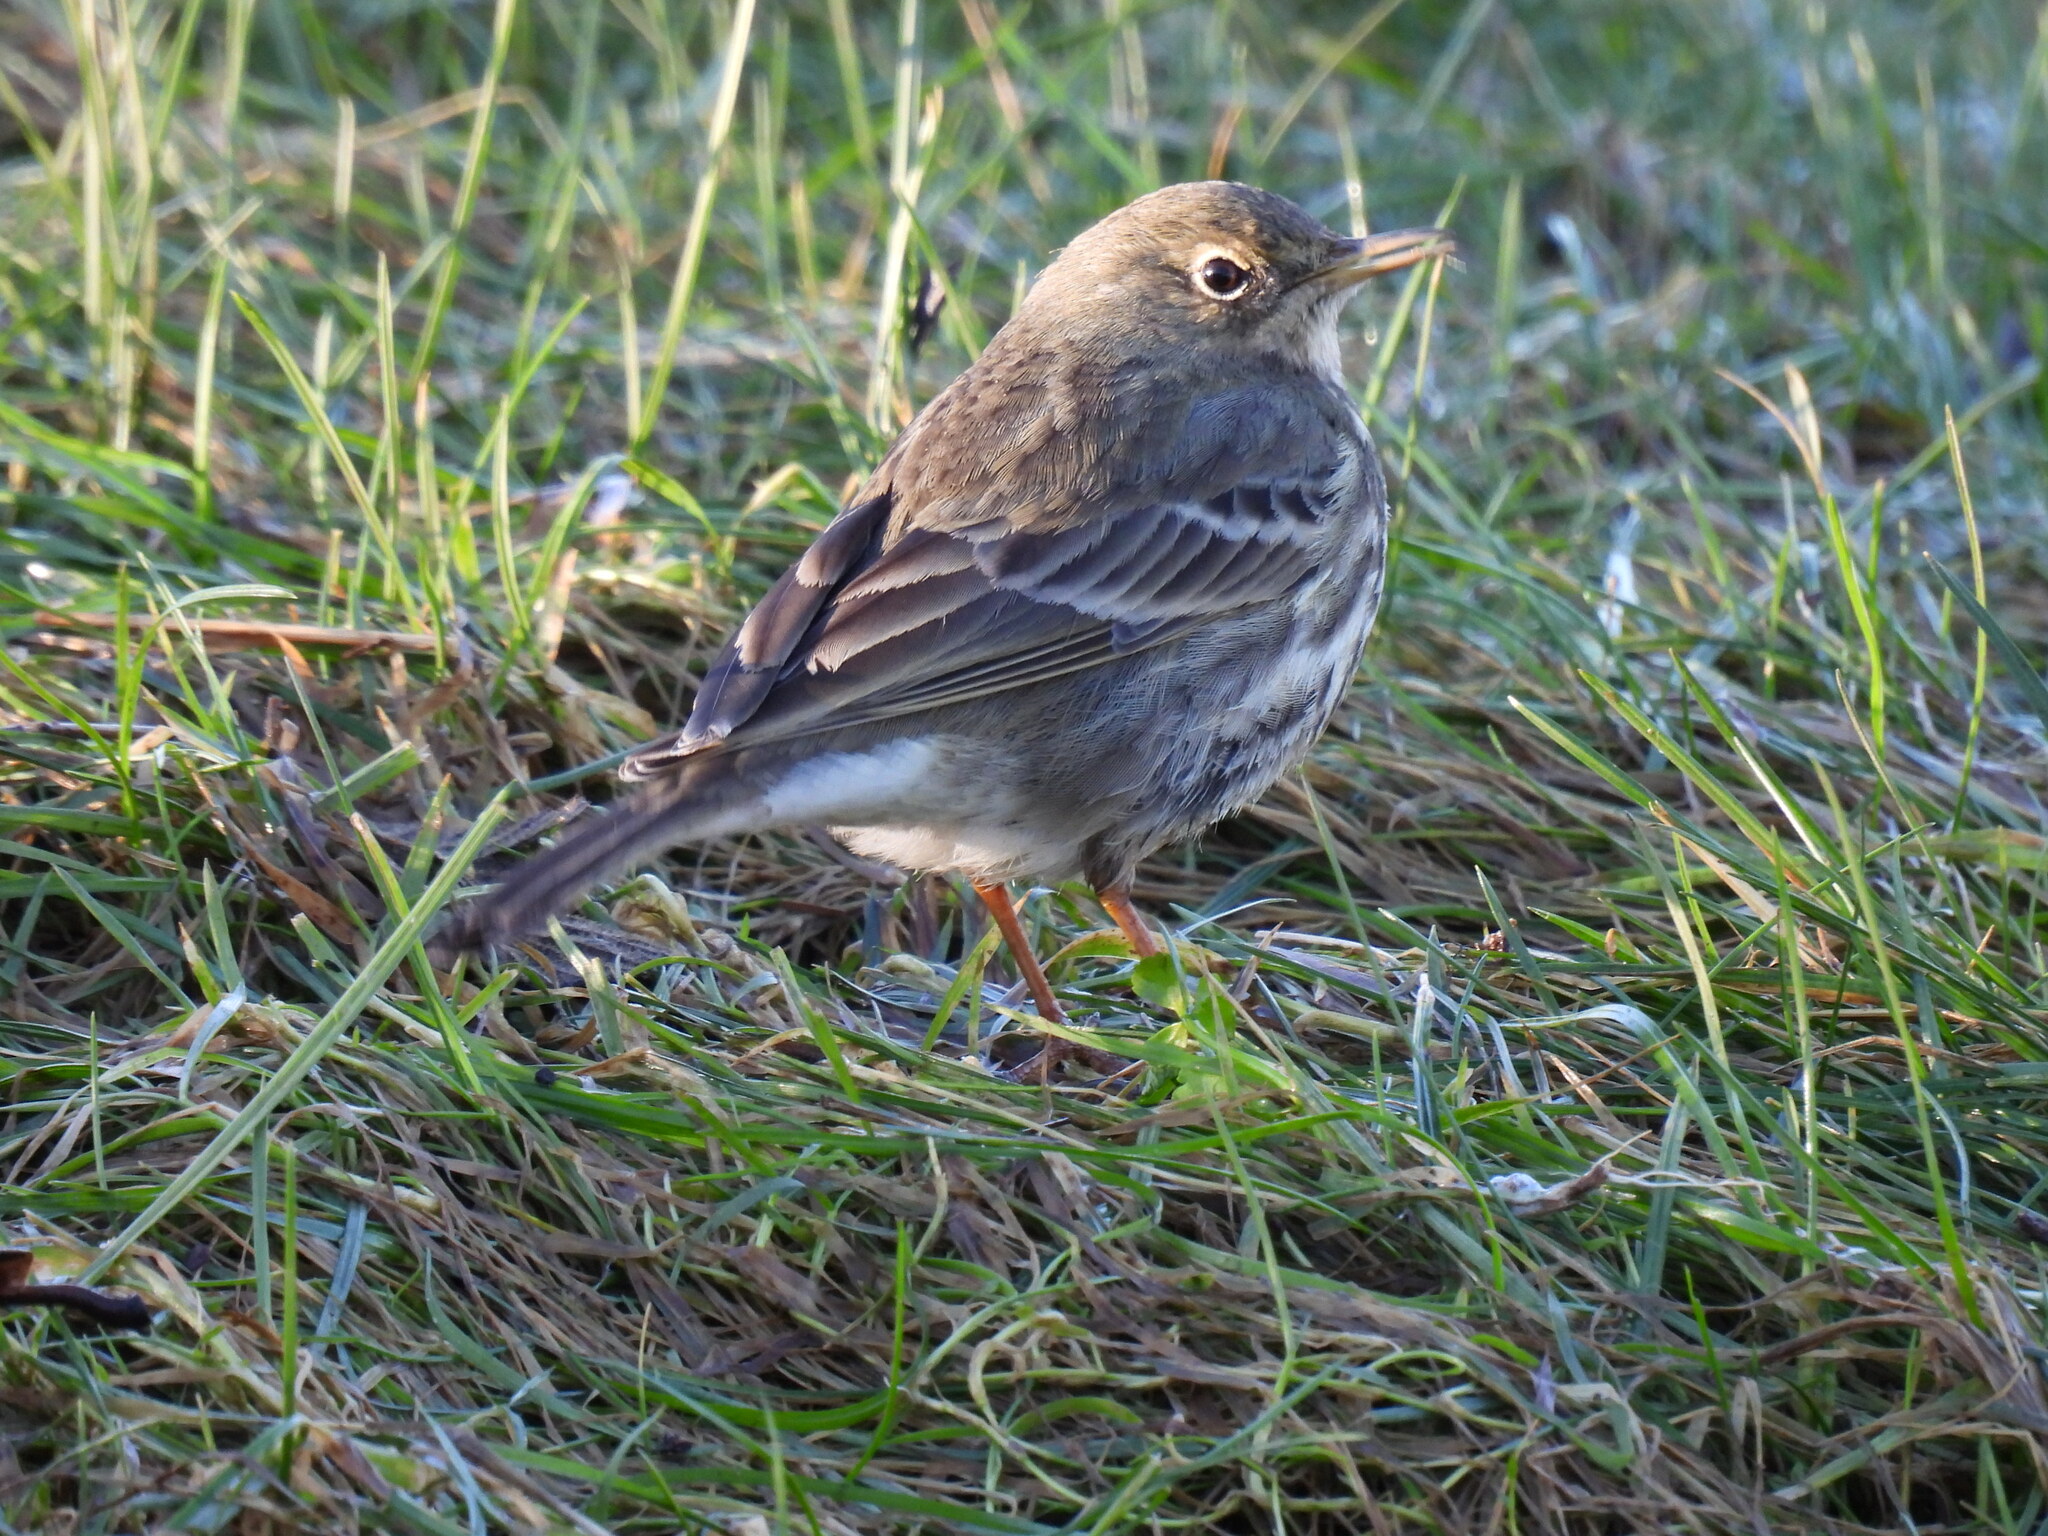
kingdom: Animalia
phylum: Chordata
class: Aves
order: Passeriformes
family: Motacillidae
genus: Anthus
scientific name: Anthus petrosus
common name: Eurasian rock pipit
